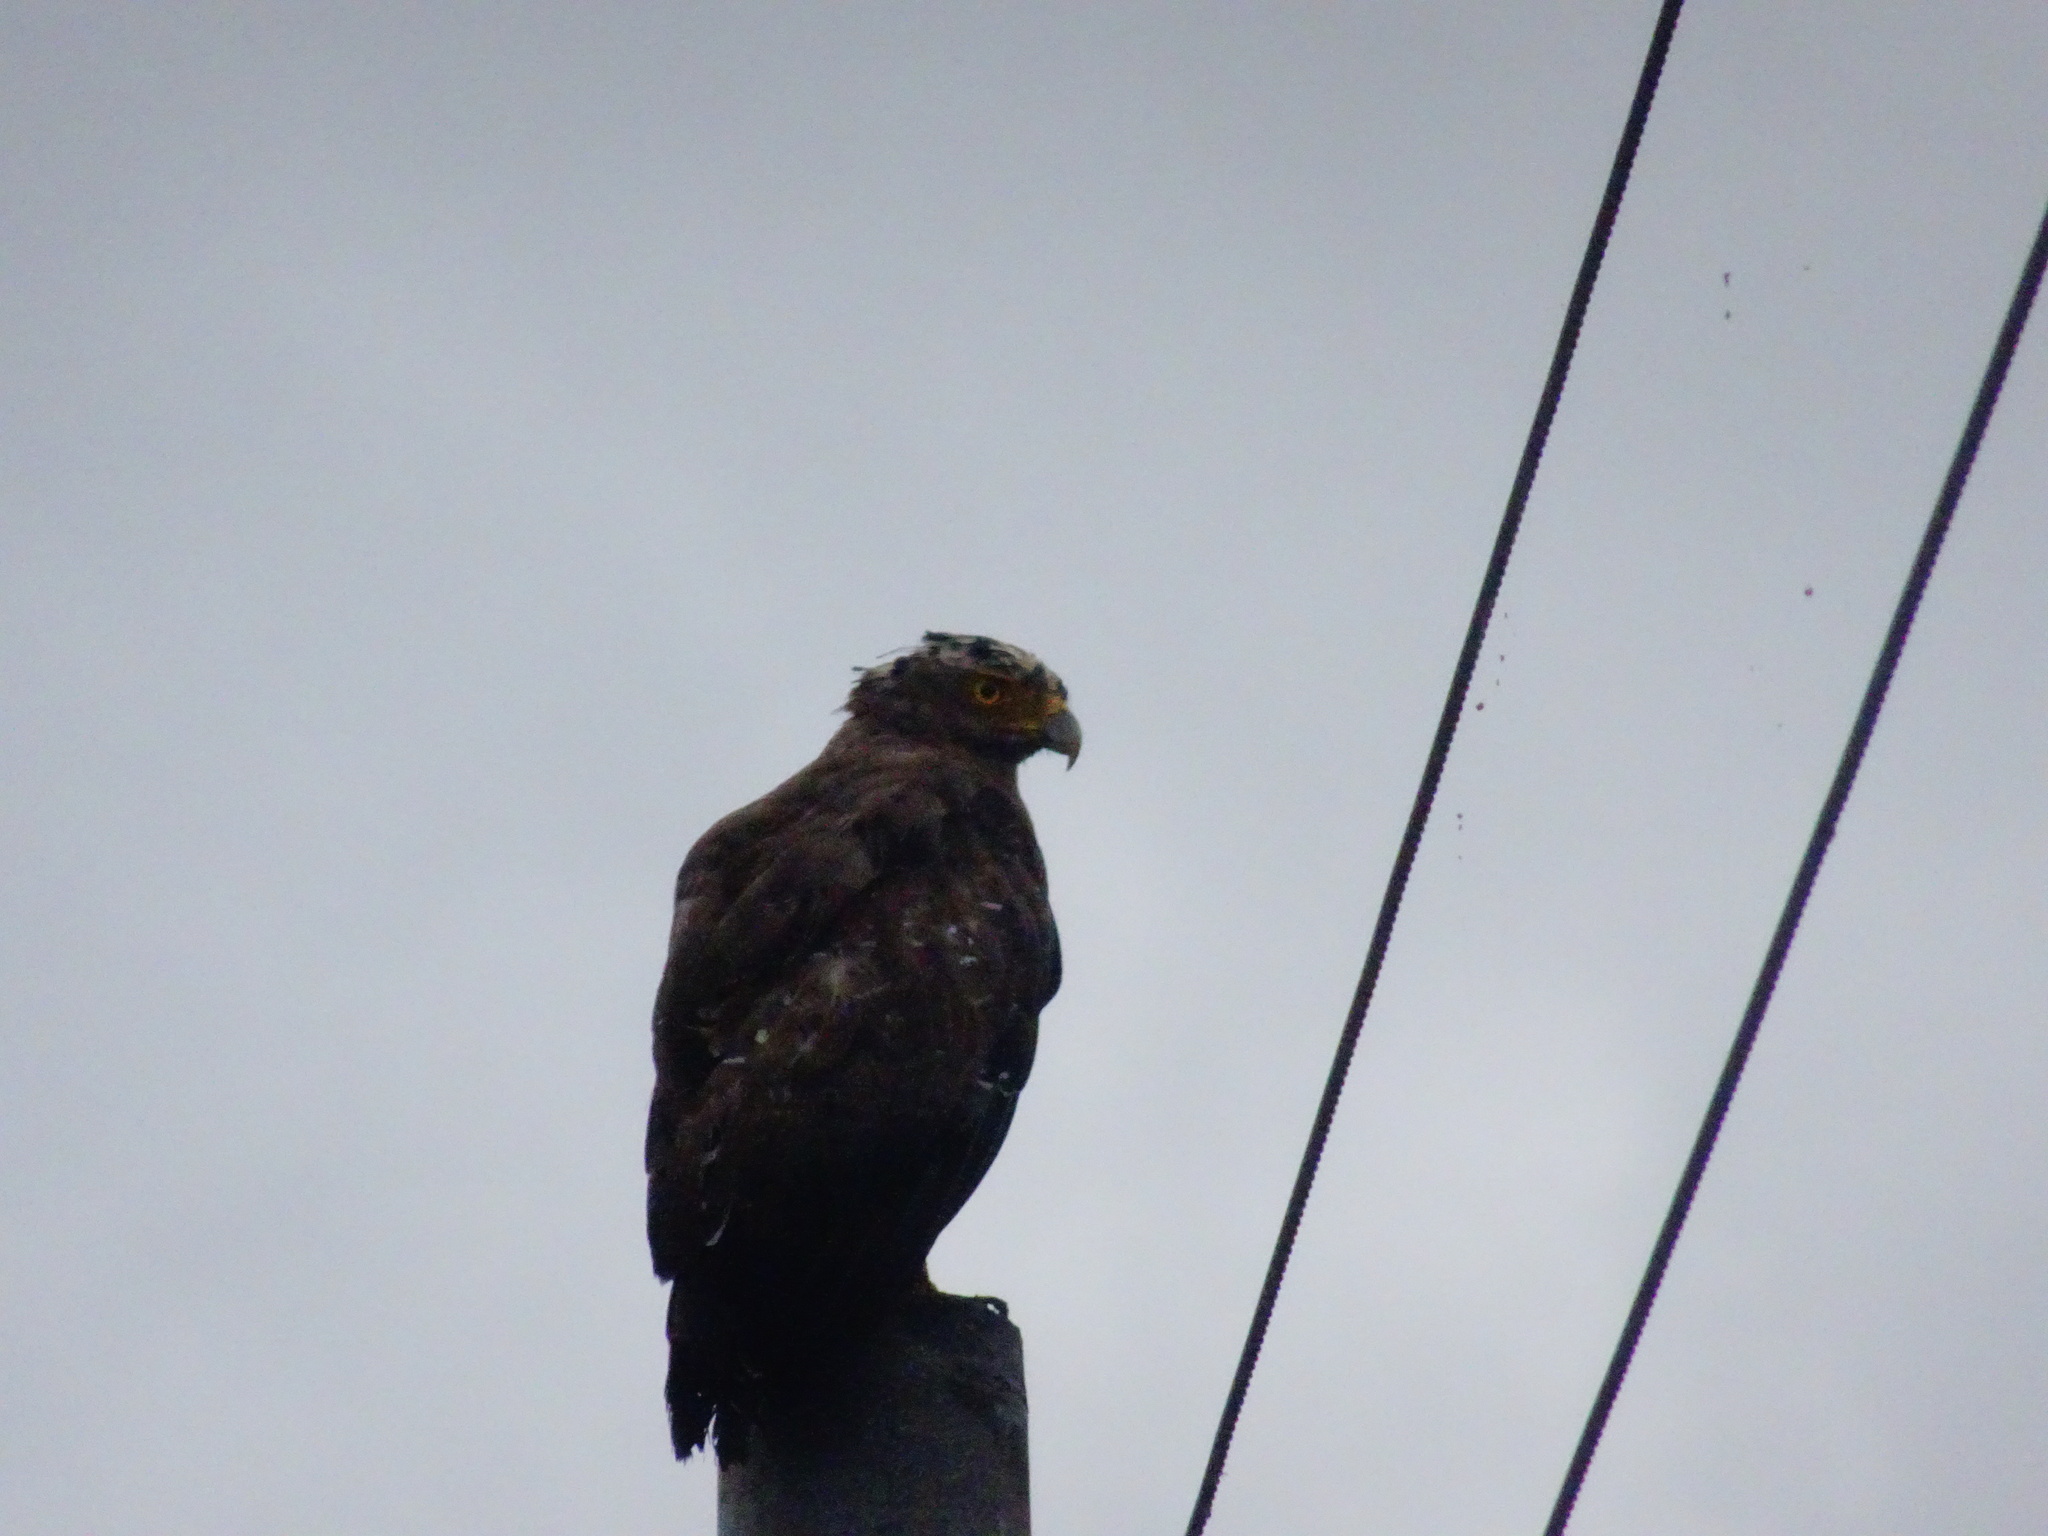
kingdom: Animalia
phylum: Chordata
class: Aves
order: Accipitriformes
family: Accipitridae
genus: Spilornis
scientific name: Spilornis cheela
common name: Crested serpent eagle
